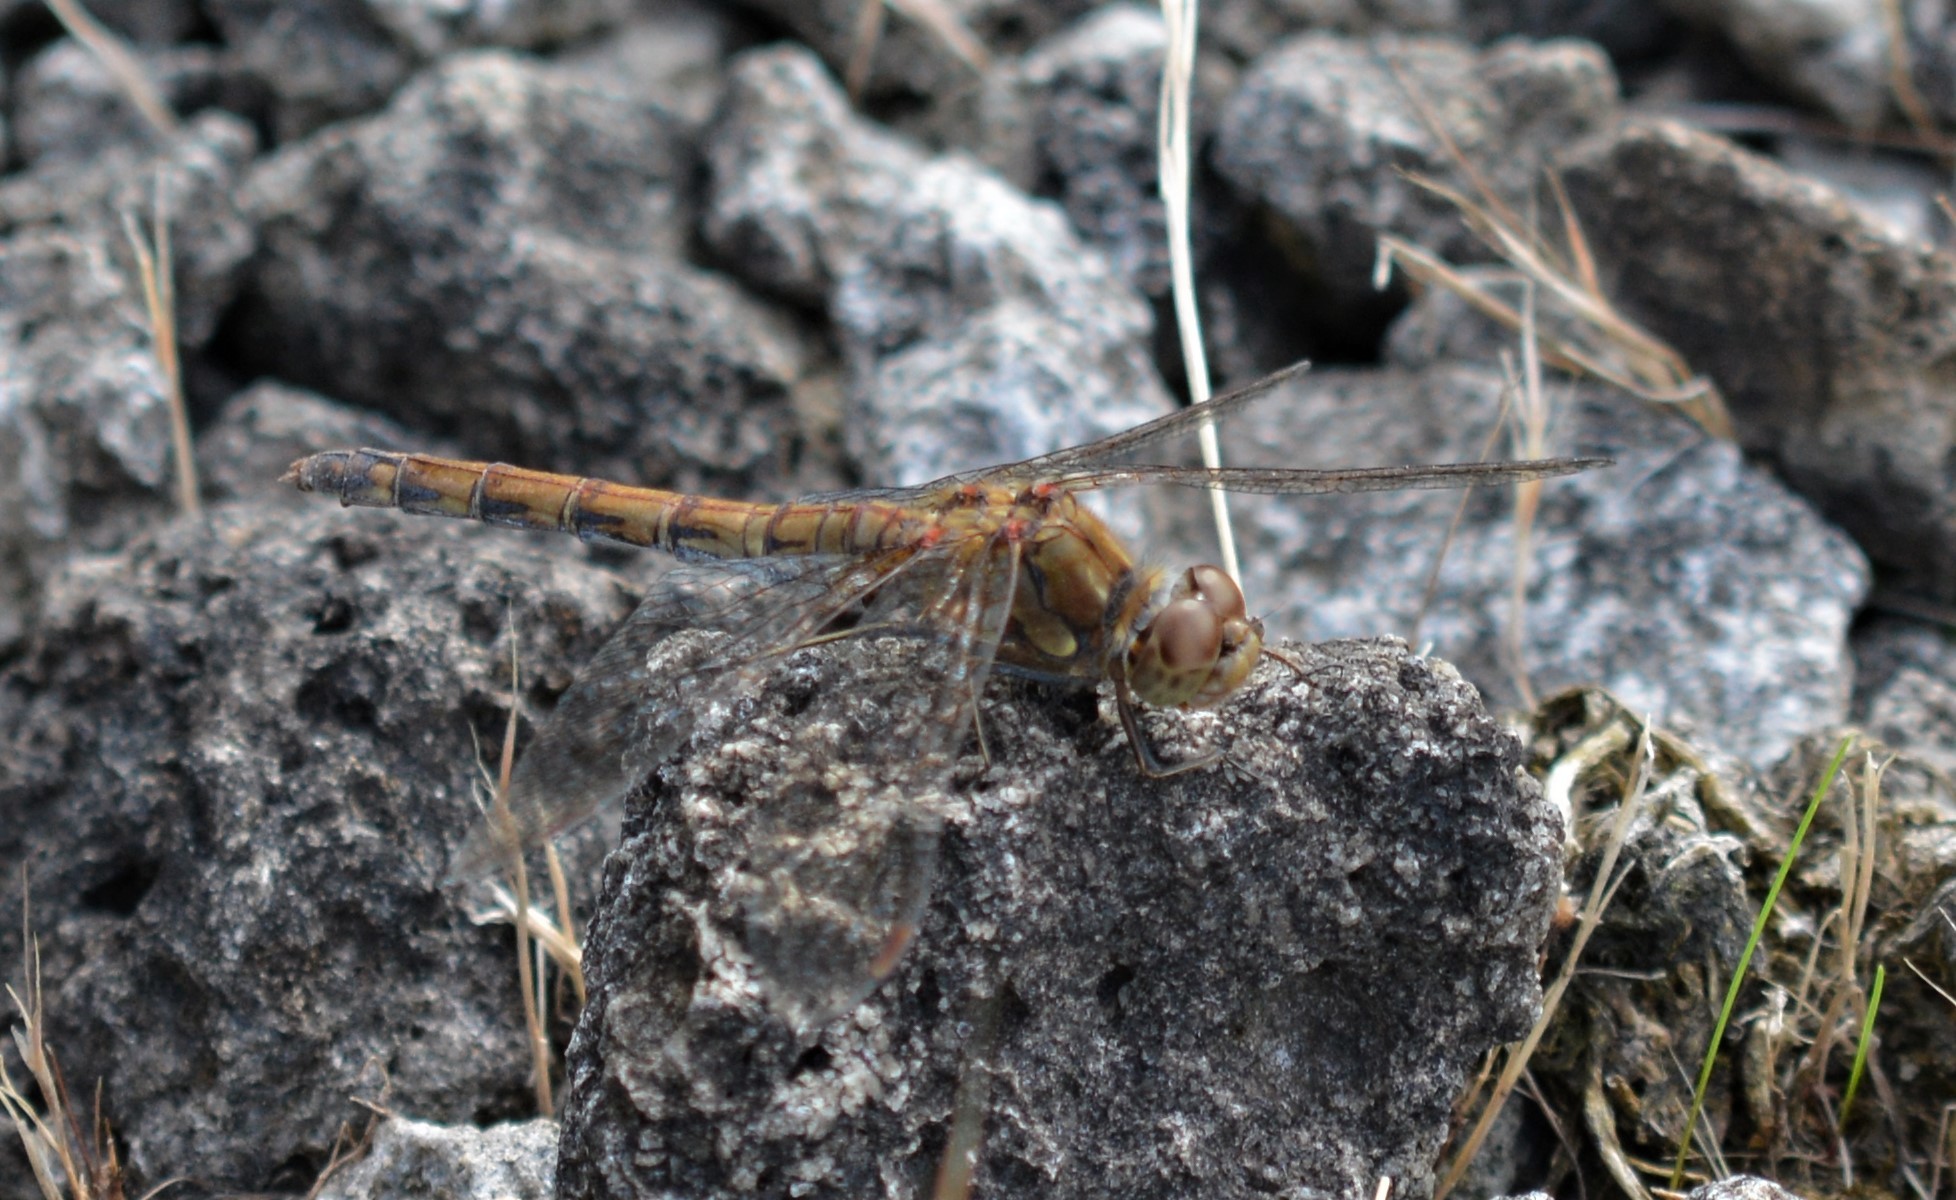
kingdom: Animalia
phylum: Arthropoda
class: Insecta
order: Odonata
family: Libellulidae
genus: Sympetrum
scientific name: Sympetrum striolatum
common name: Common darter
